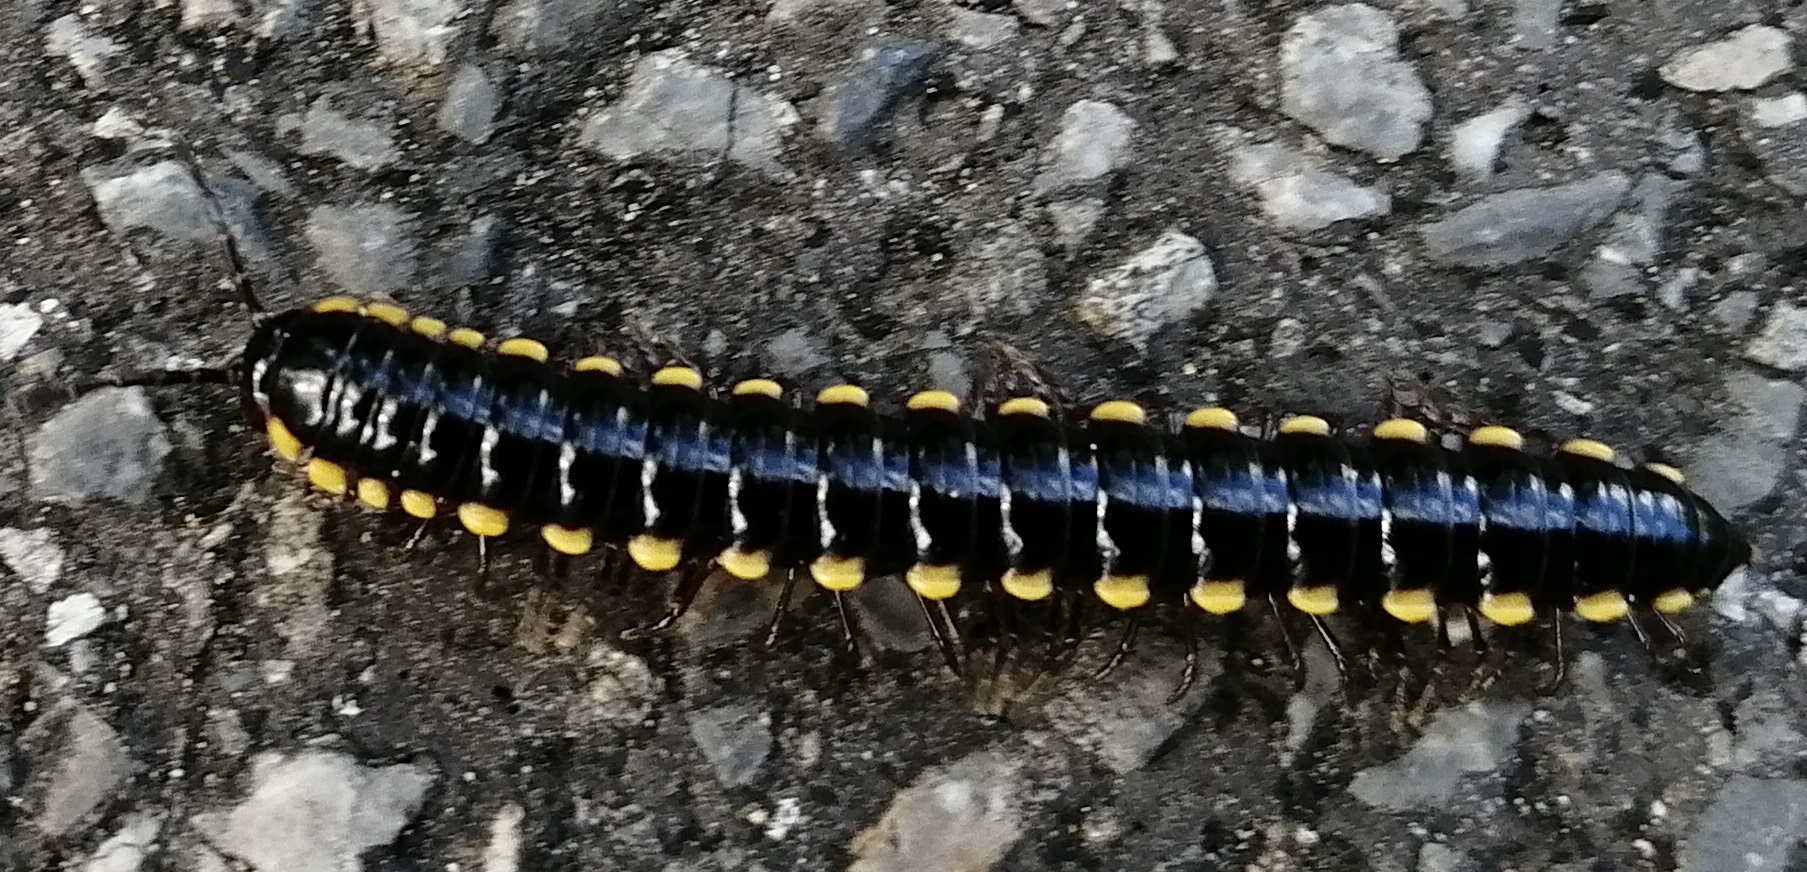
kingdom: Animalia
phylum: Arthropoda
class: Diplopoda
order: Polydesmida
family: Paradoxosomatidae
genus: Anoplodesmus
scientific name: Anoplodesmus saussurii
